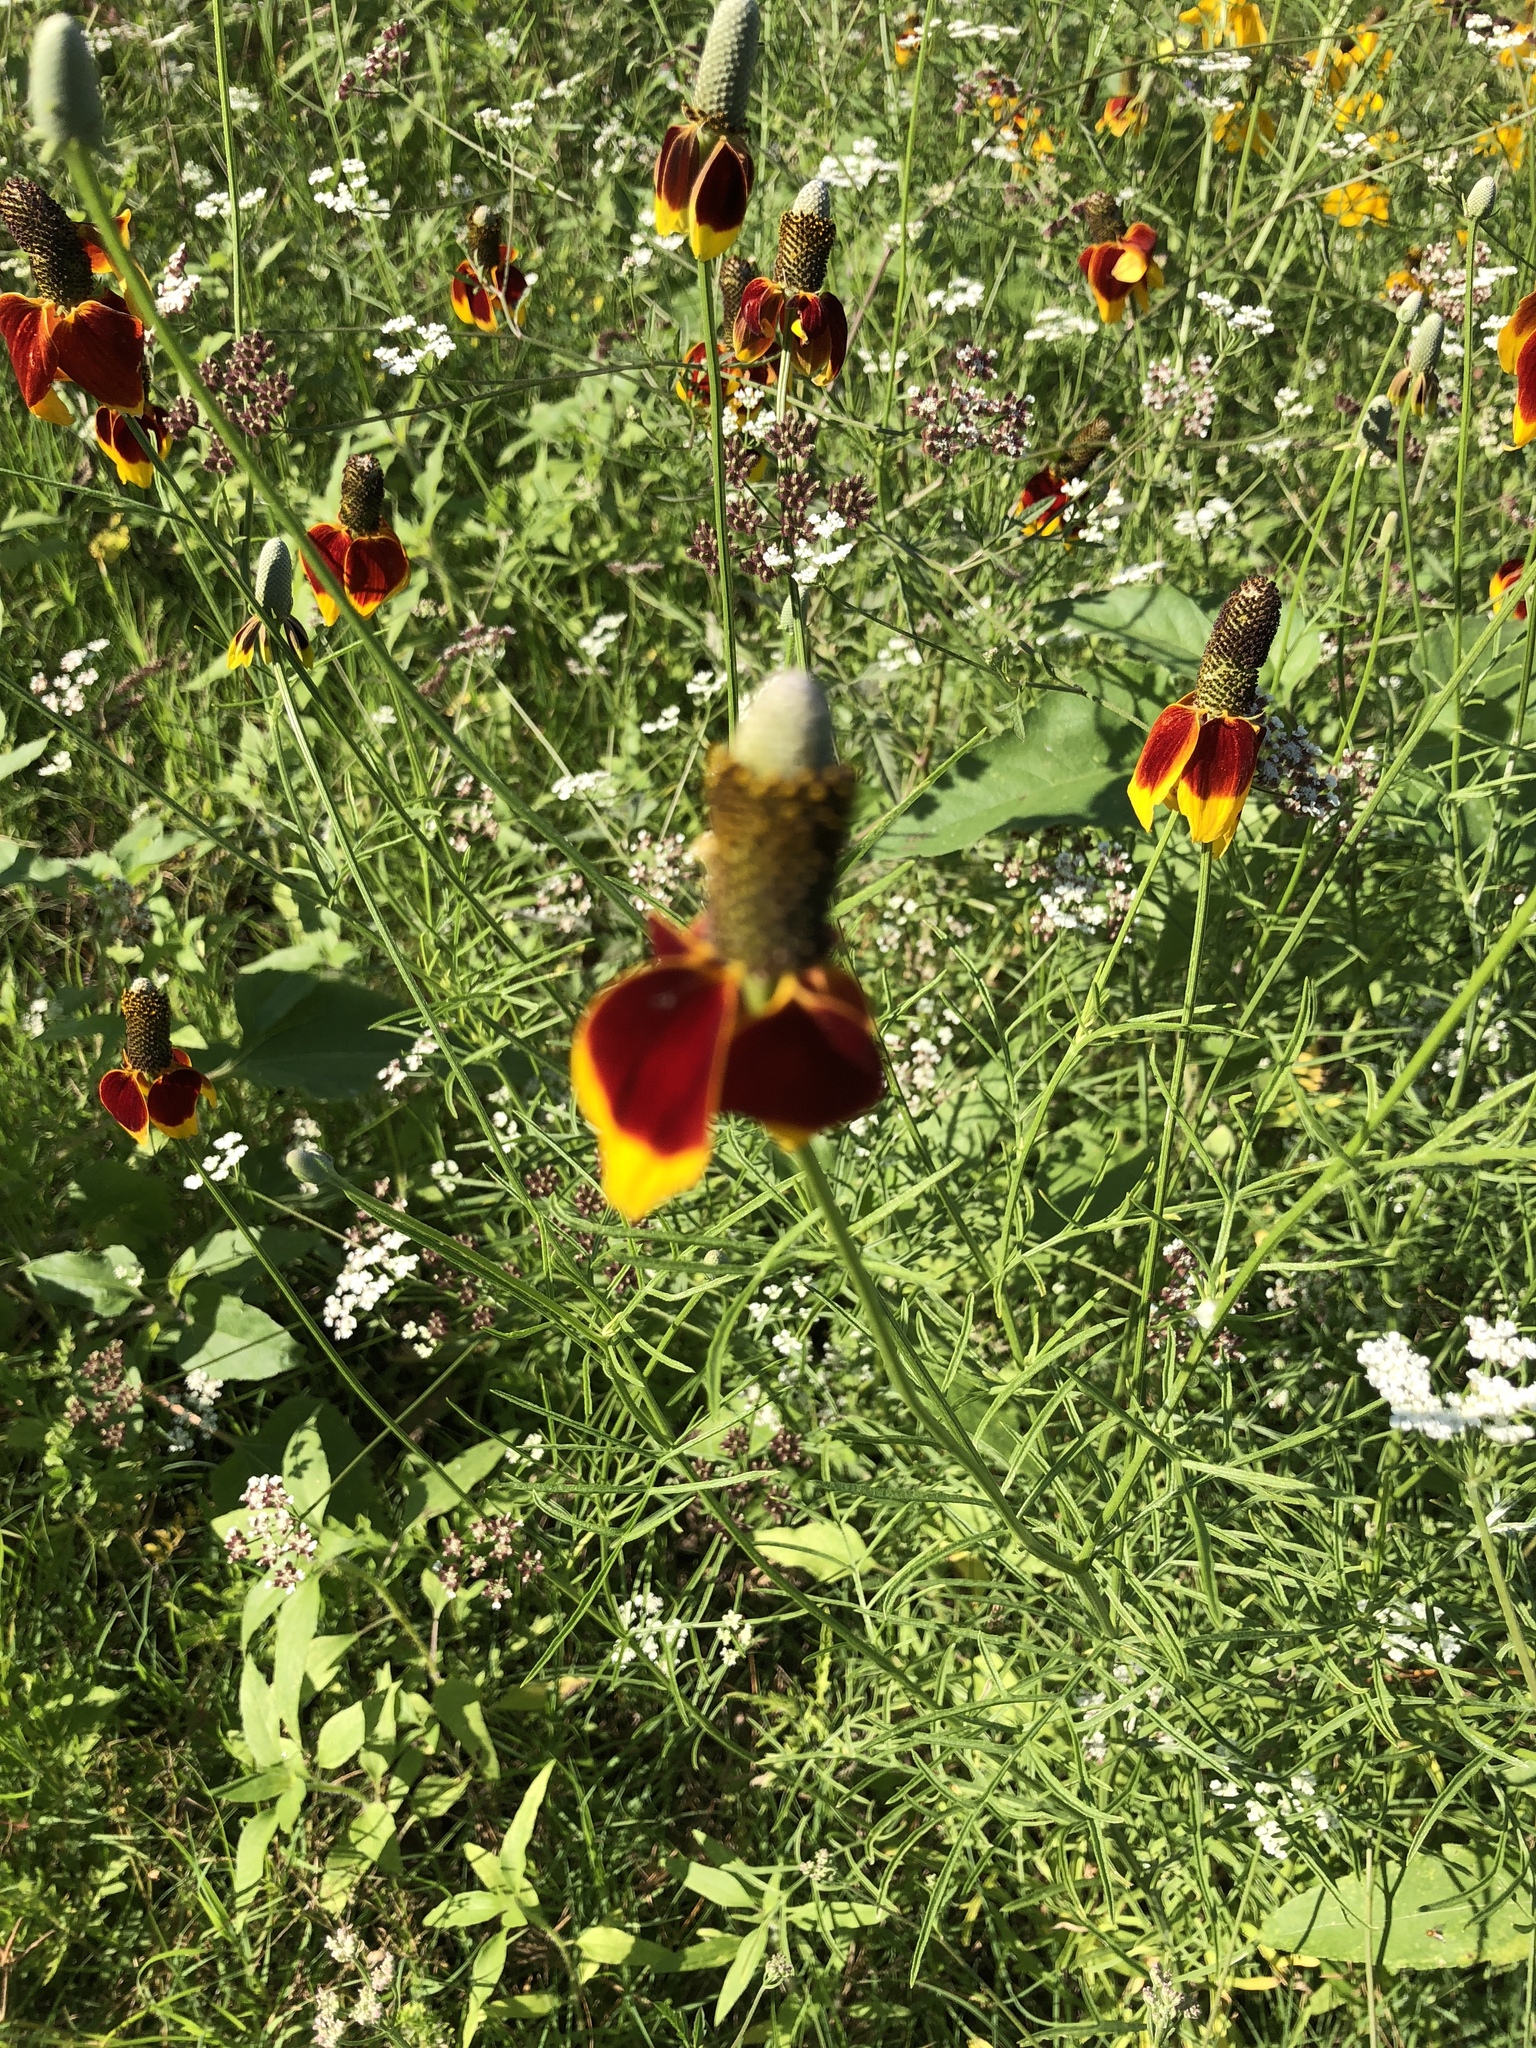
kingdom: Plantae
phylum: Tracheophyta
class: Magnoliopsida
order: Asterales
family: Asteraceae
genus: Ratibida
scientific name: Ratibida columnifera
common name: Prairie coneflower
